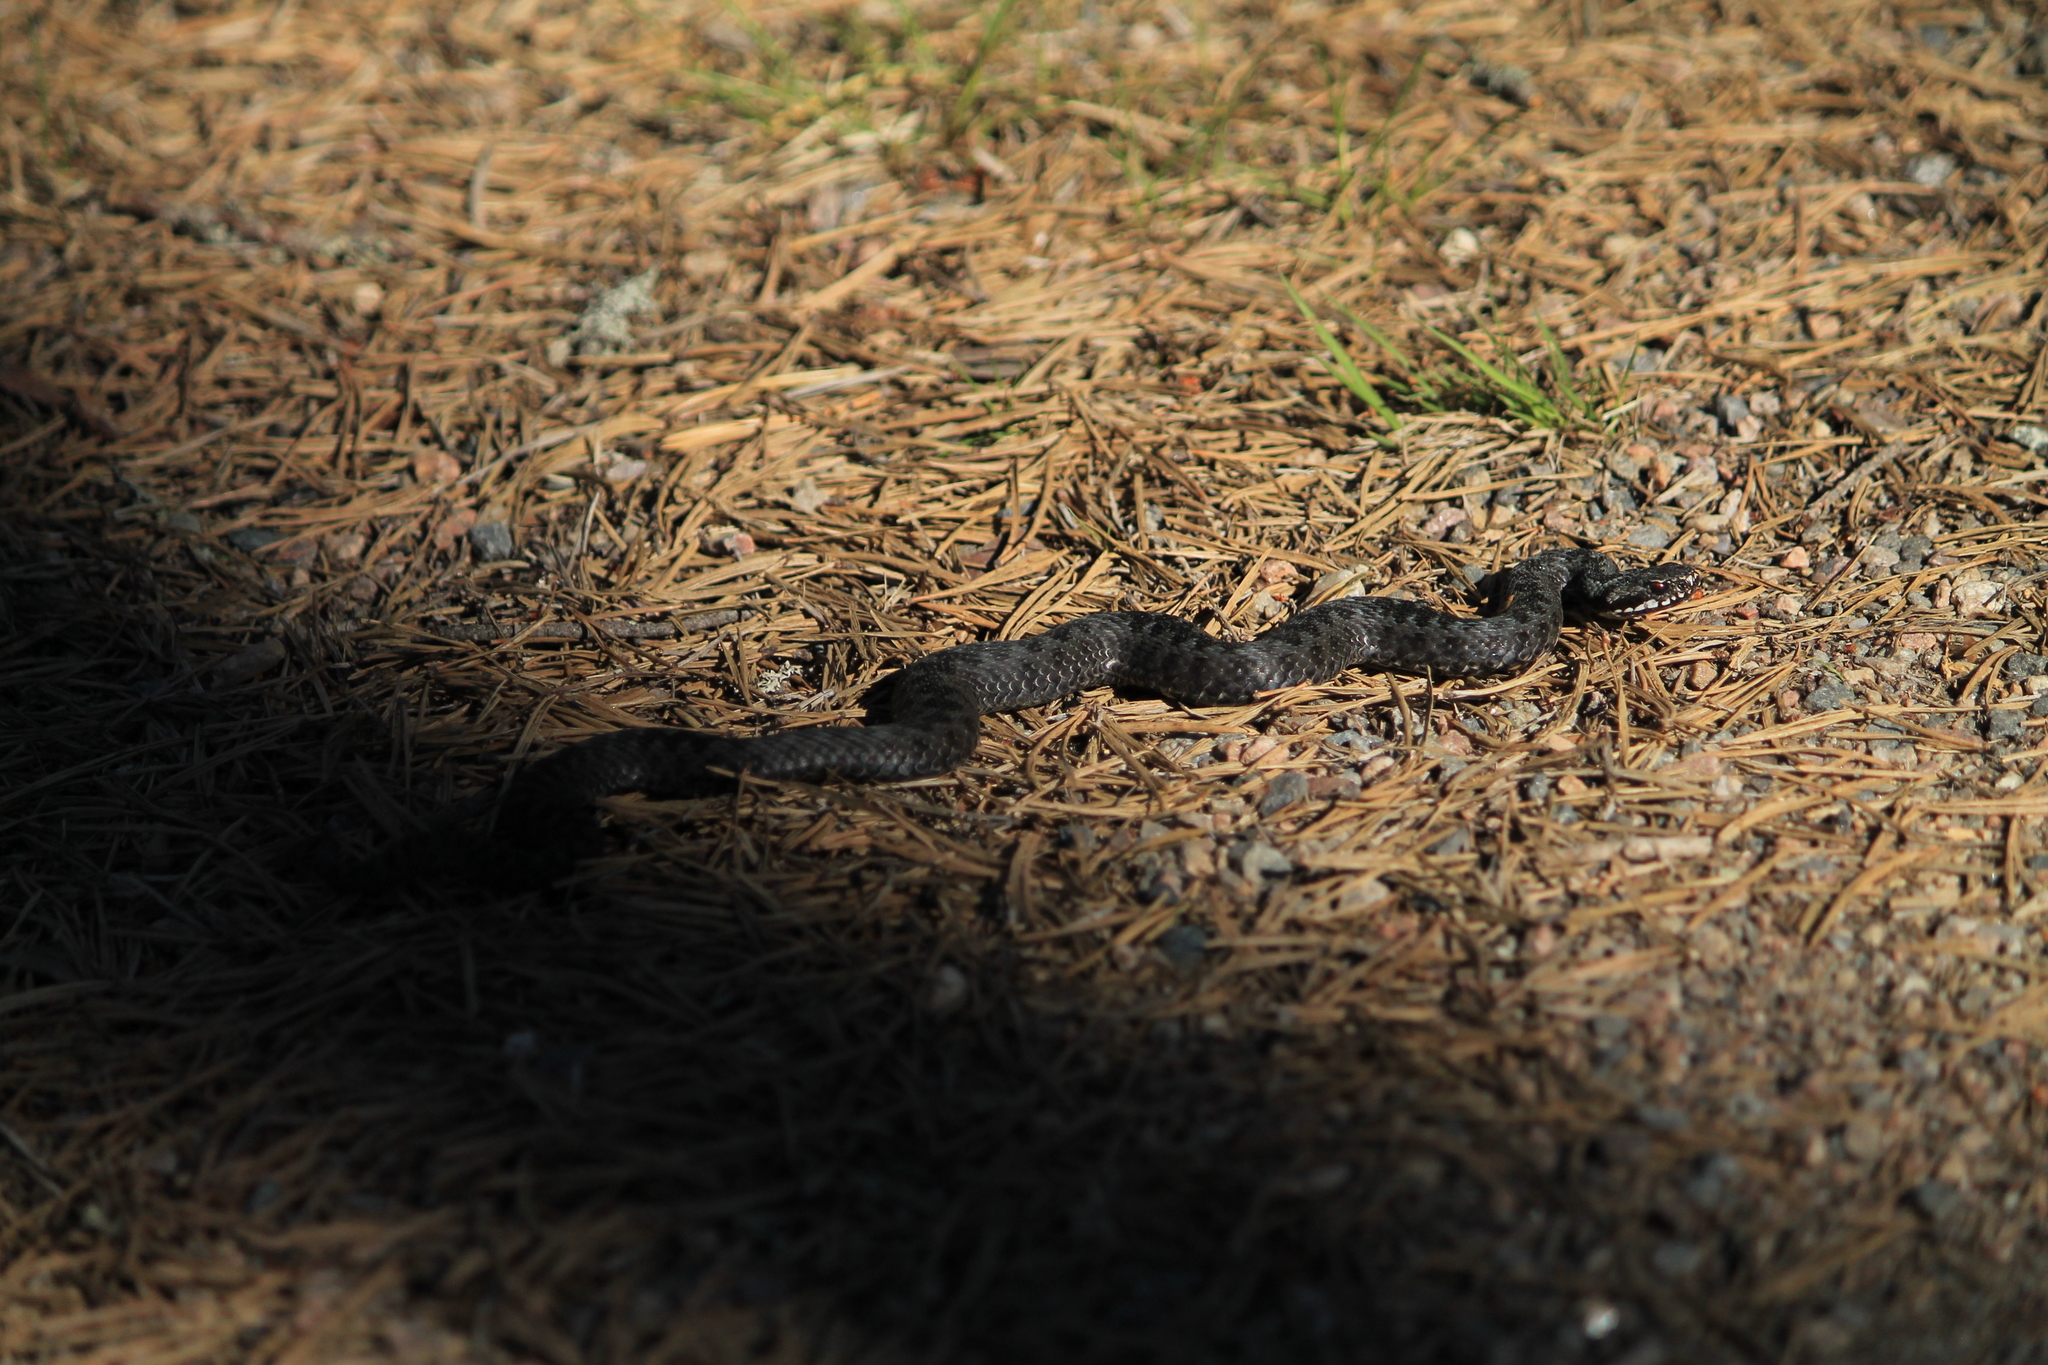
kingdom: Animalia
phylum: Chordata
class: Squamata
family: Viperidae
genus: Vipera
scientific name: Vipera berus
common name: Adder
